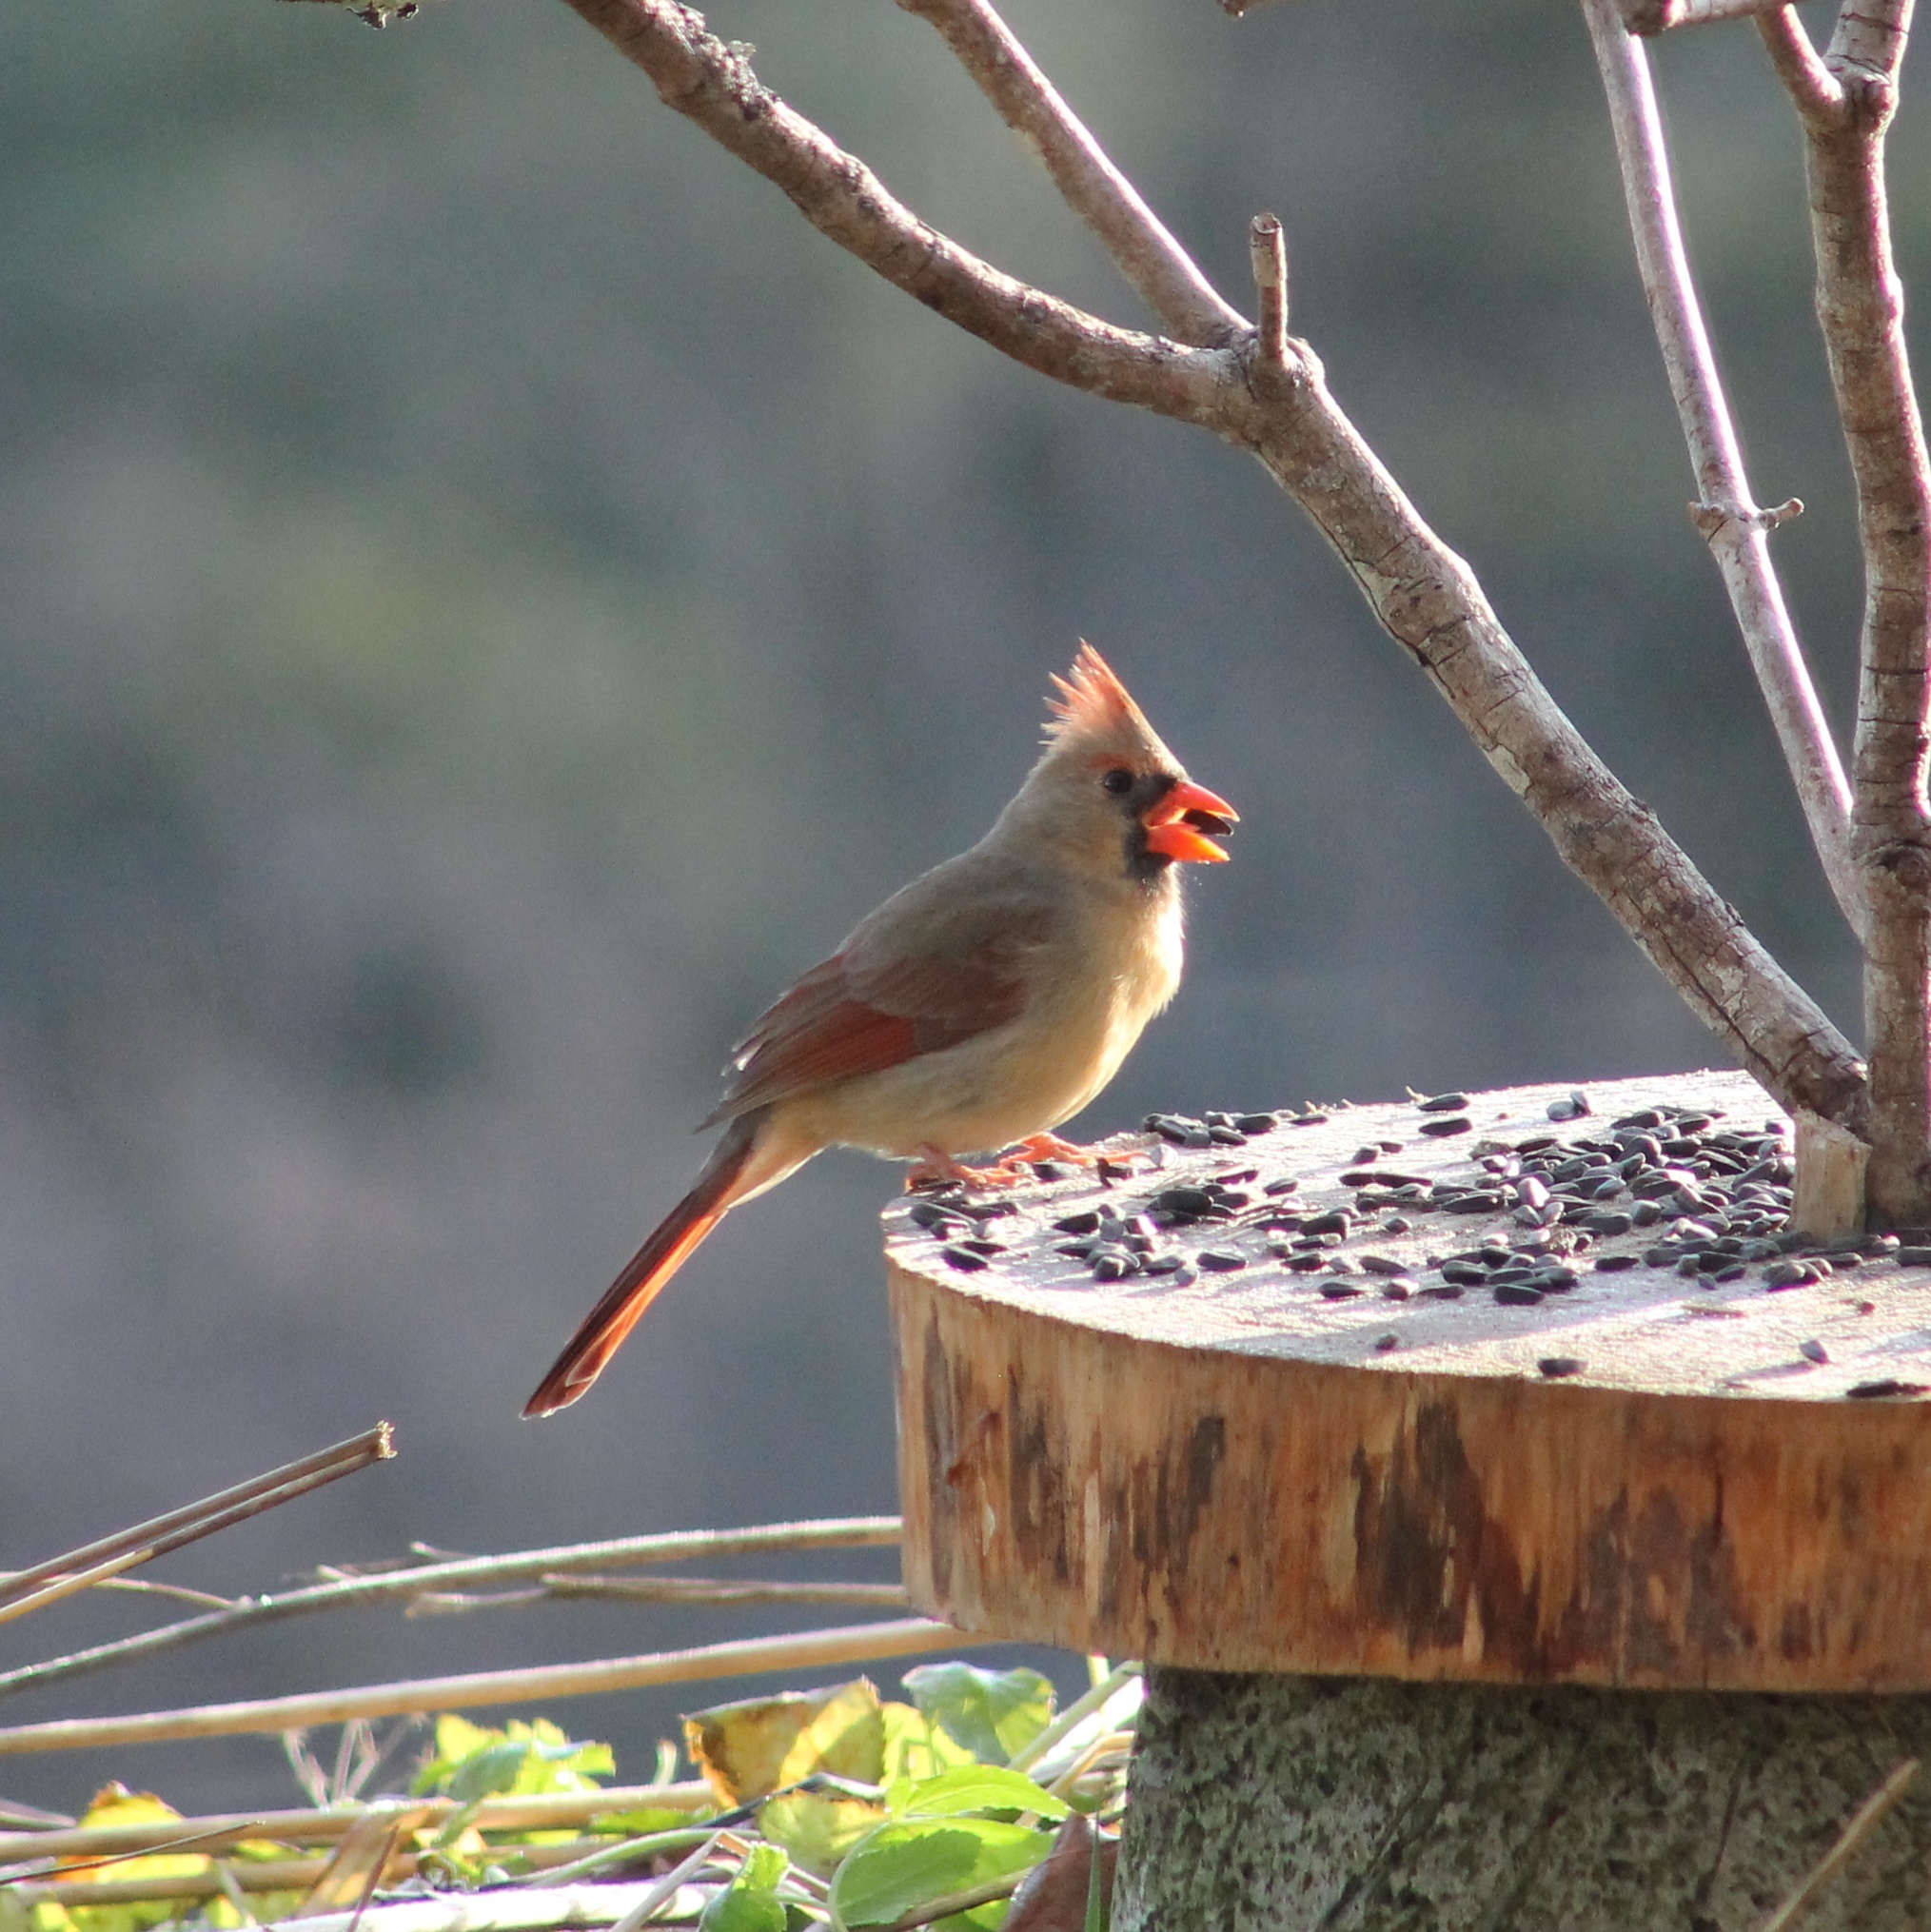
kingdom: Animalia
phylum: Chordata
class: Aves
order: Passeriformes
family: Cardinalidae
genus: Cardinalis
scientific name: Cardinalis cardinalis
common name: Northern cardinal
